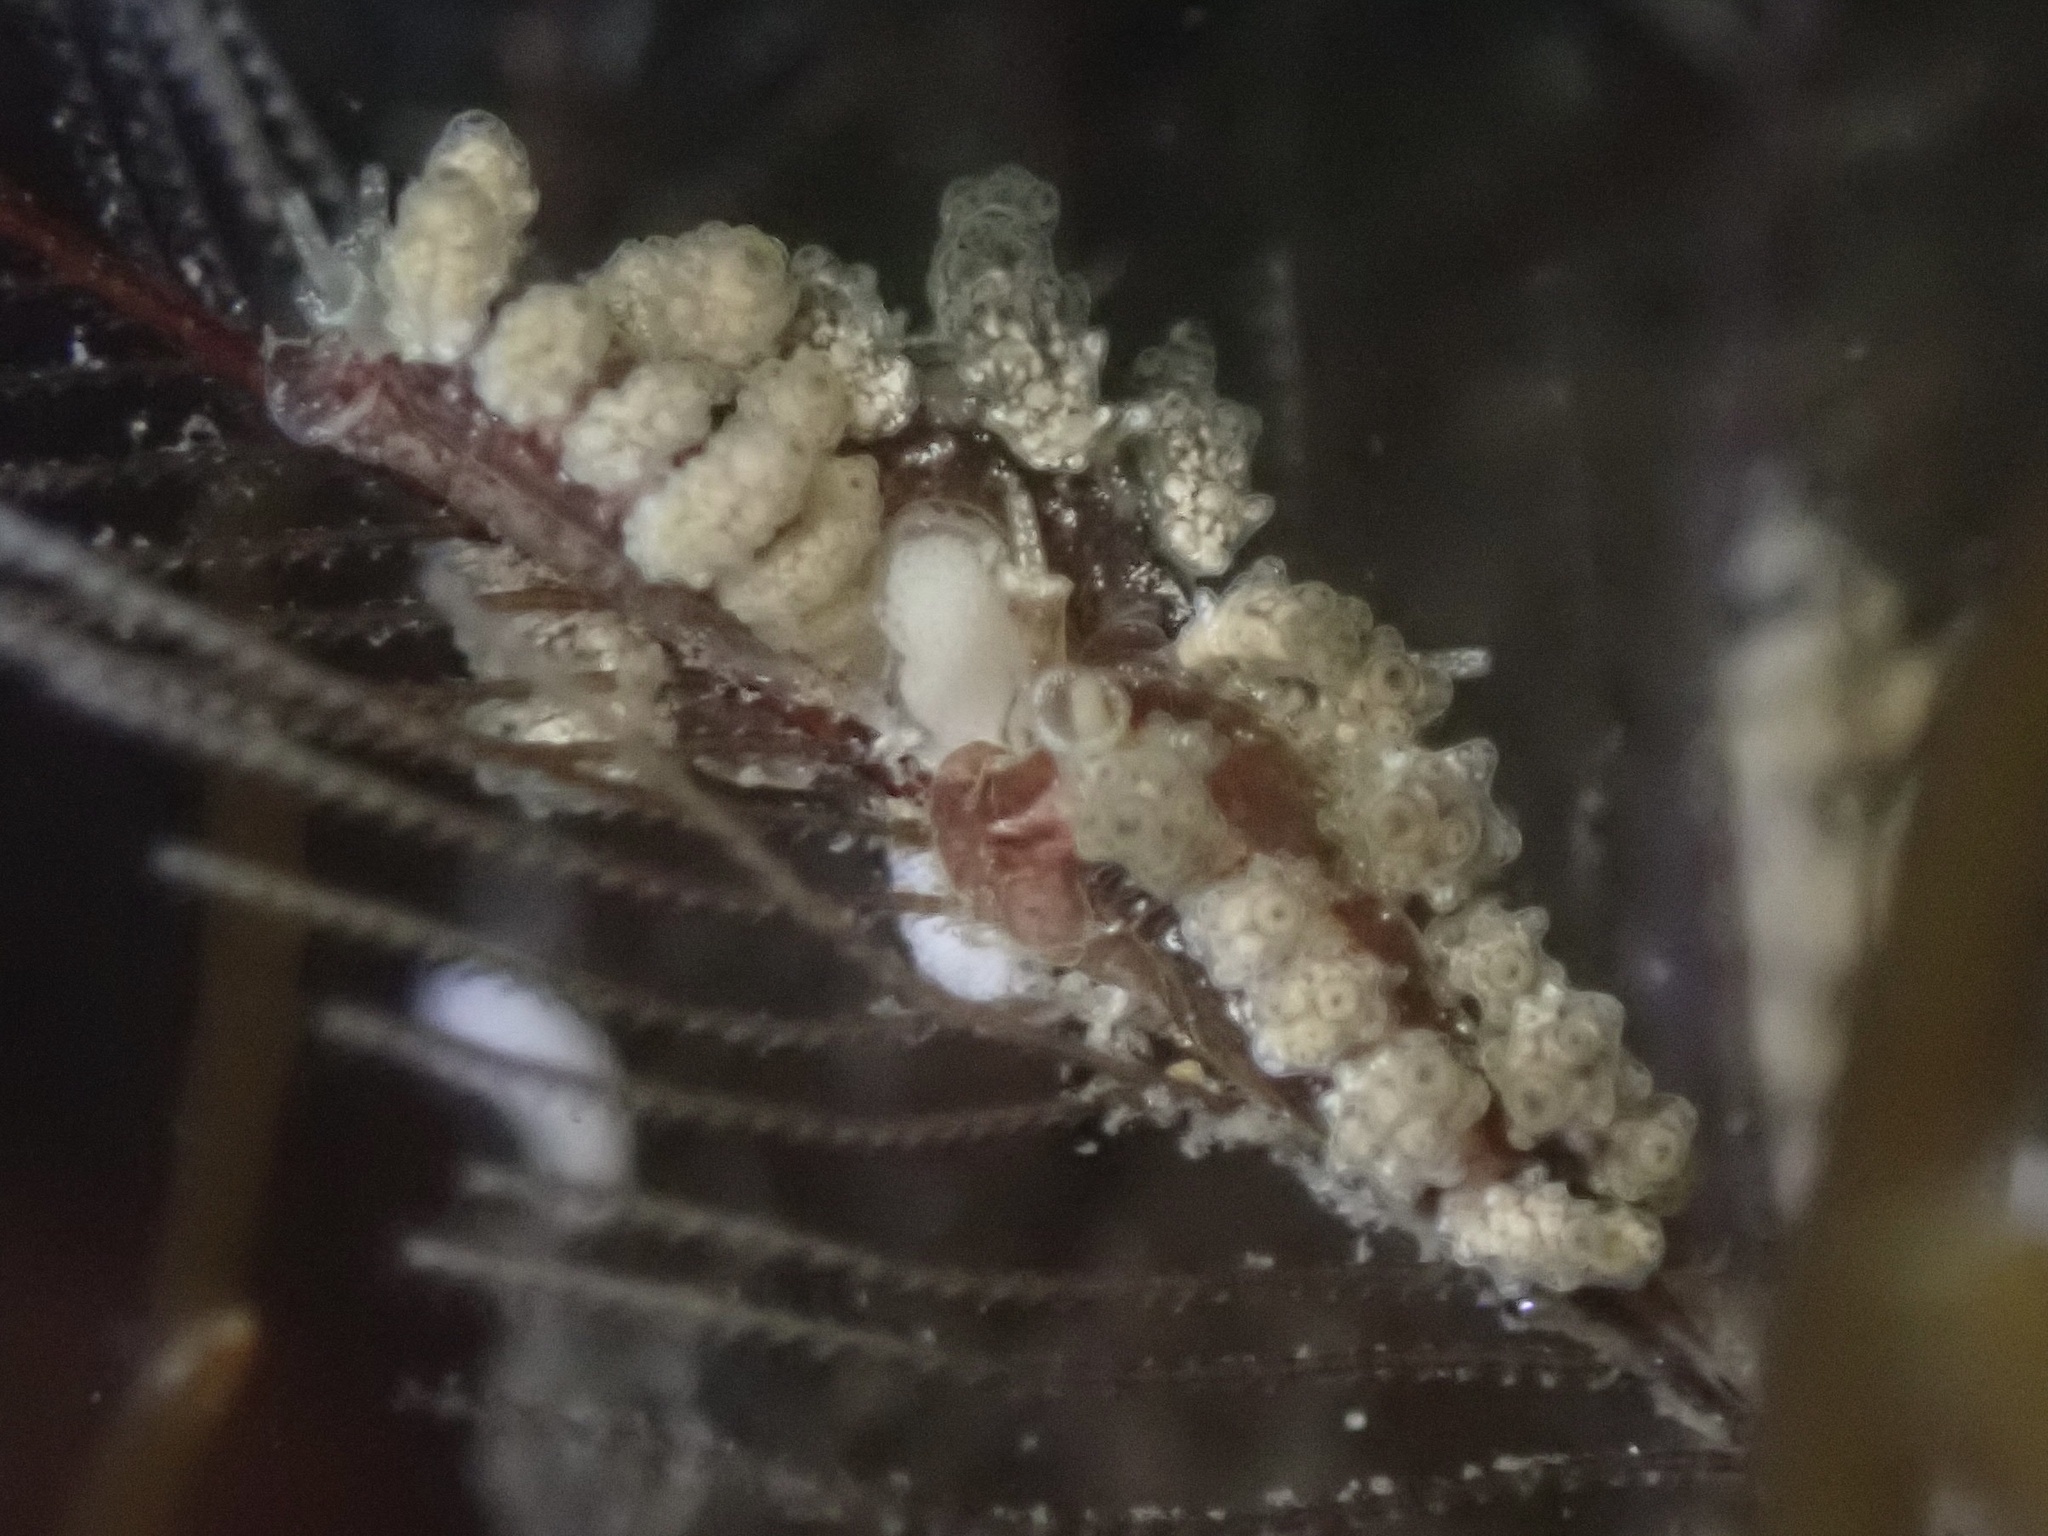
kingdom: Animalia
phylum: Mollusca
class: Gastropoda
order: Nudibranchia
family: Dotidae
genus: Doto
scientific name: Doto lancei
